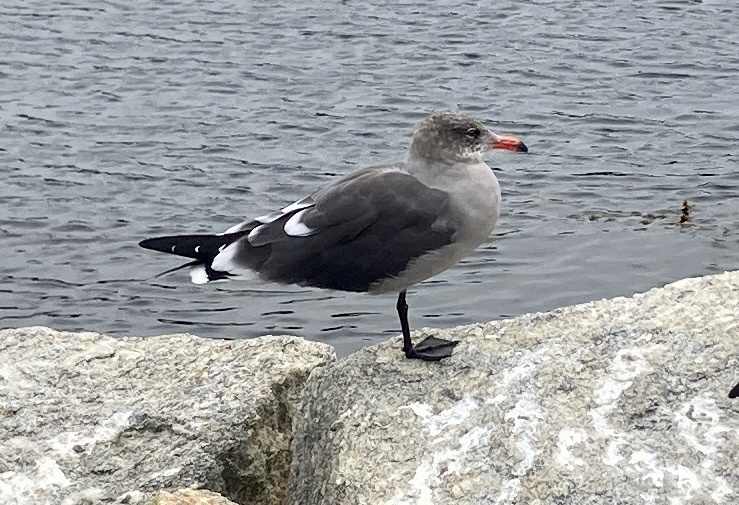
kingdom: Animalia
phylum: Chordata
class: Aves
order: Charadriiformes
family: Laridae
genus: Larus
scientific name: Larus heermanni
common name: Heermann's gull
